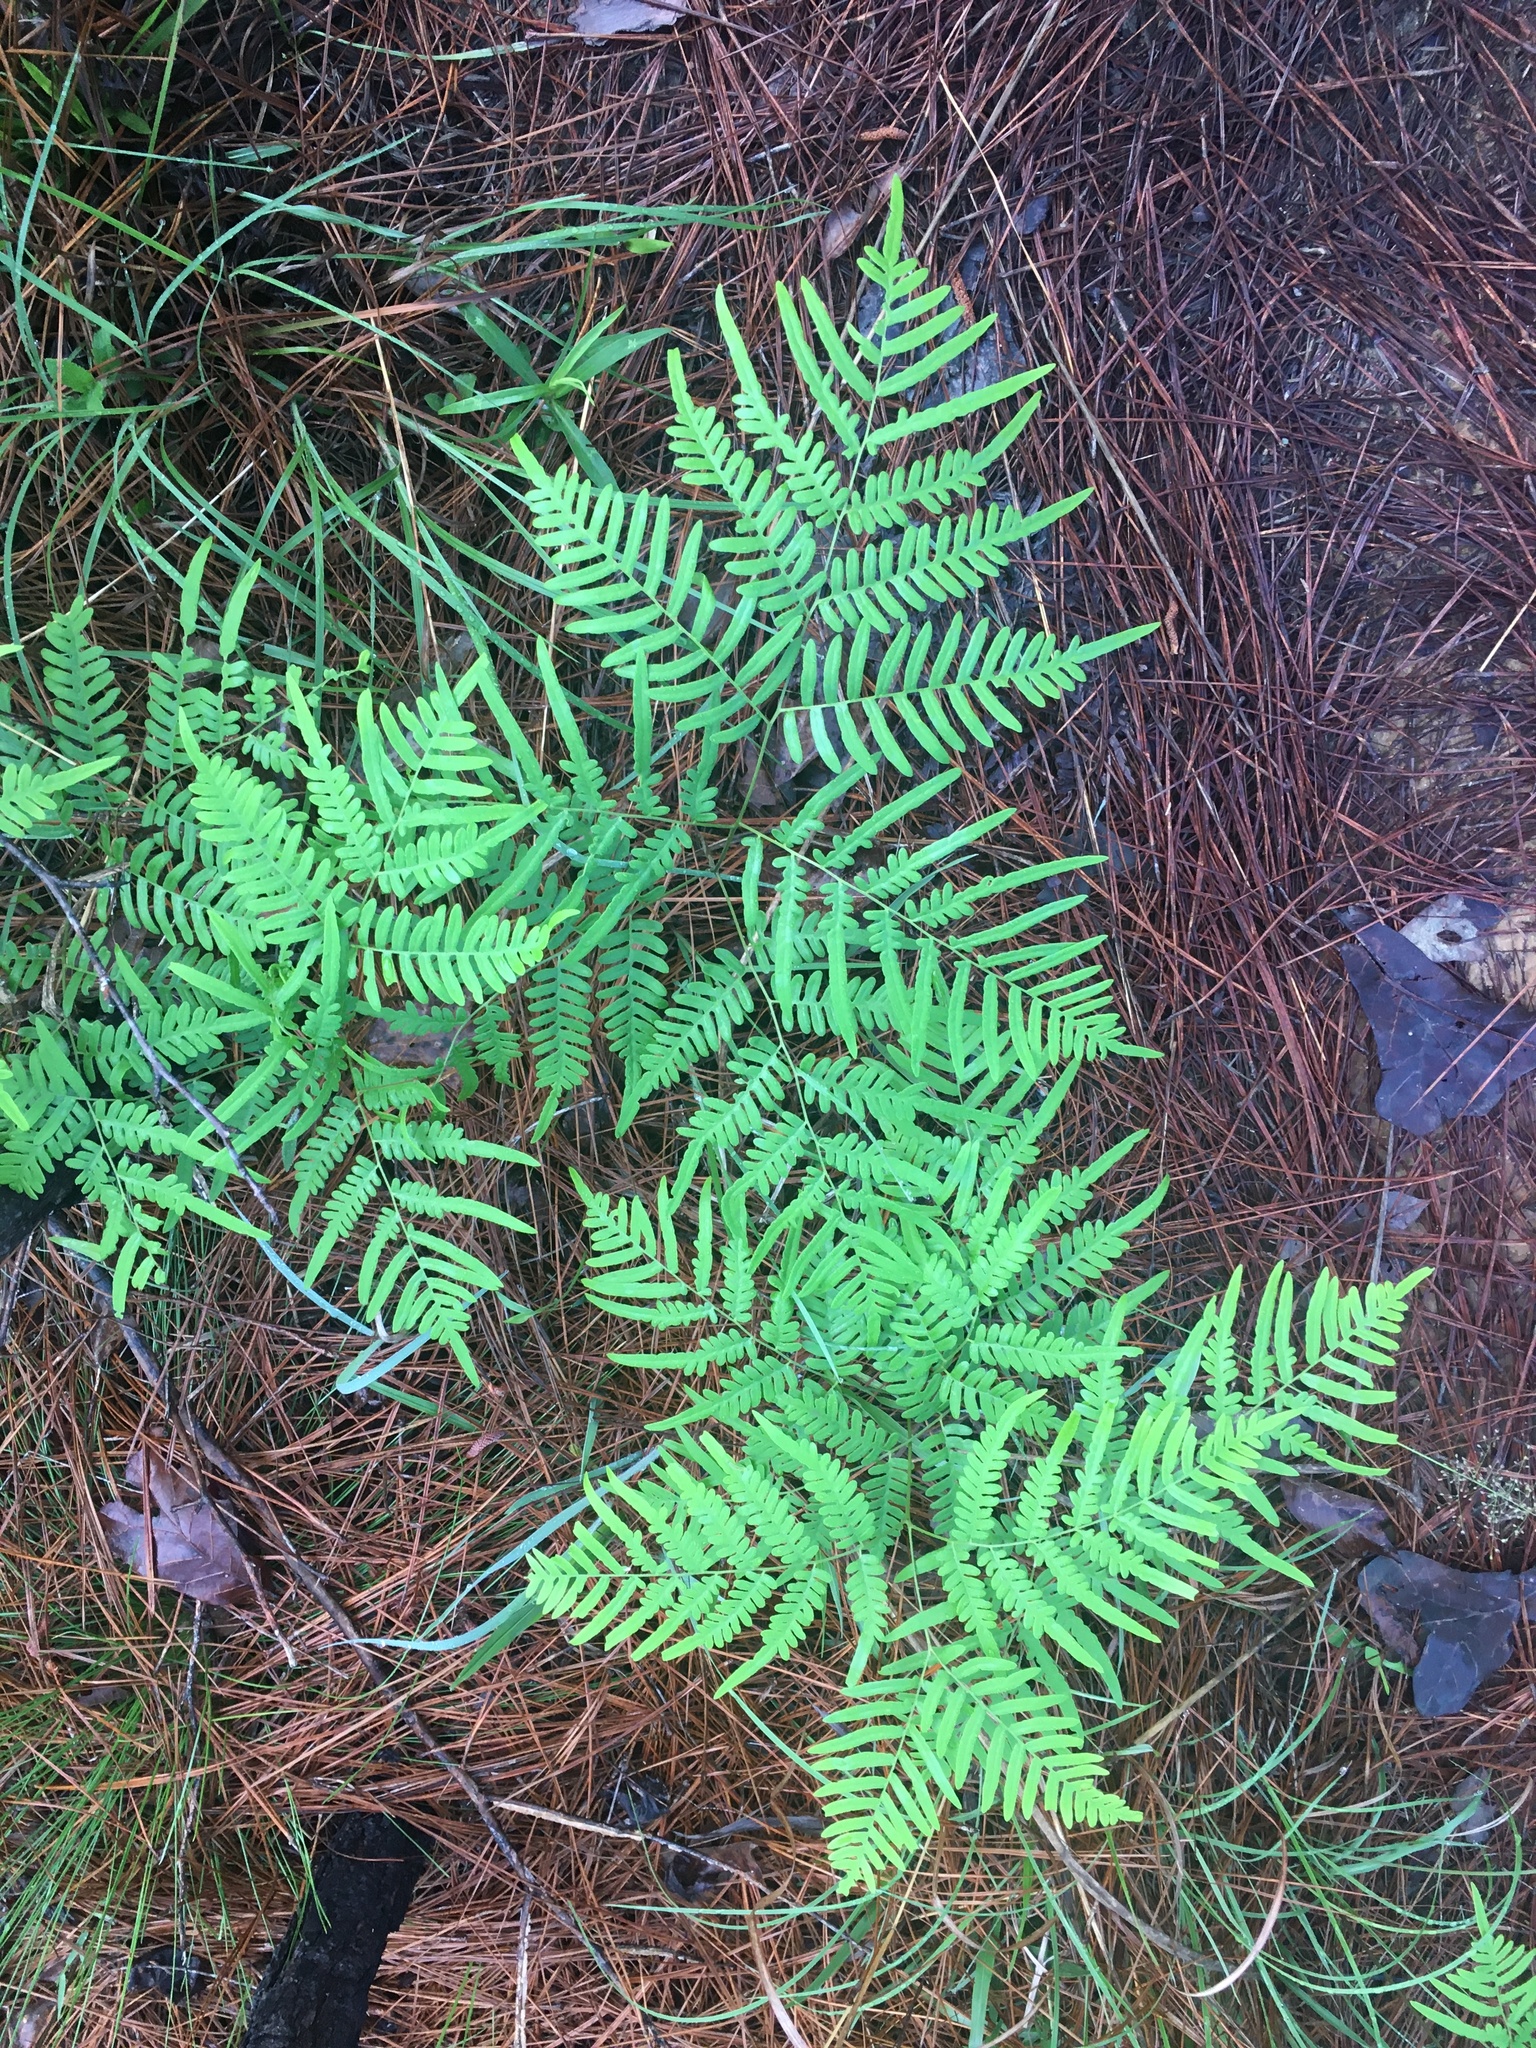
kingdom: Plantae
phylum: Tracheophyta
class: Polypodiopsida
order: Polypodiales
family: Dennstaedtiaceae
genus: Pteridium
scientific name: Pteridium
